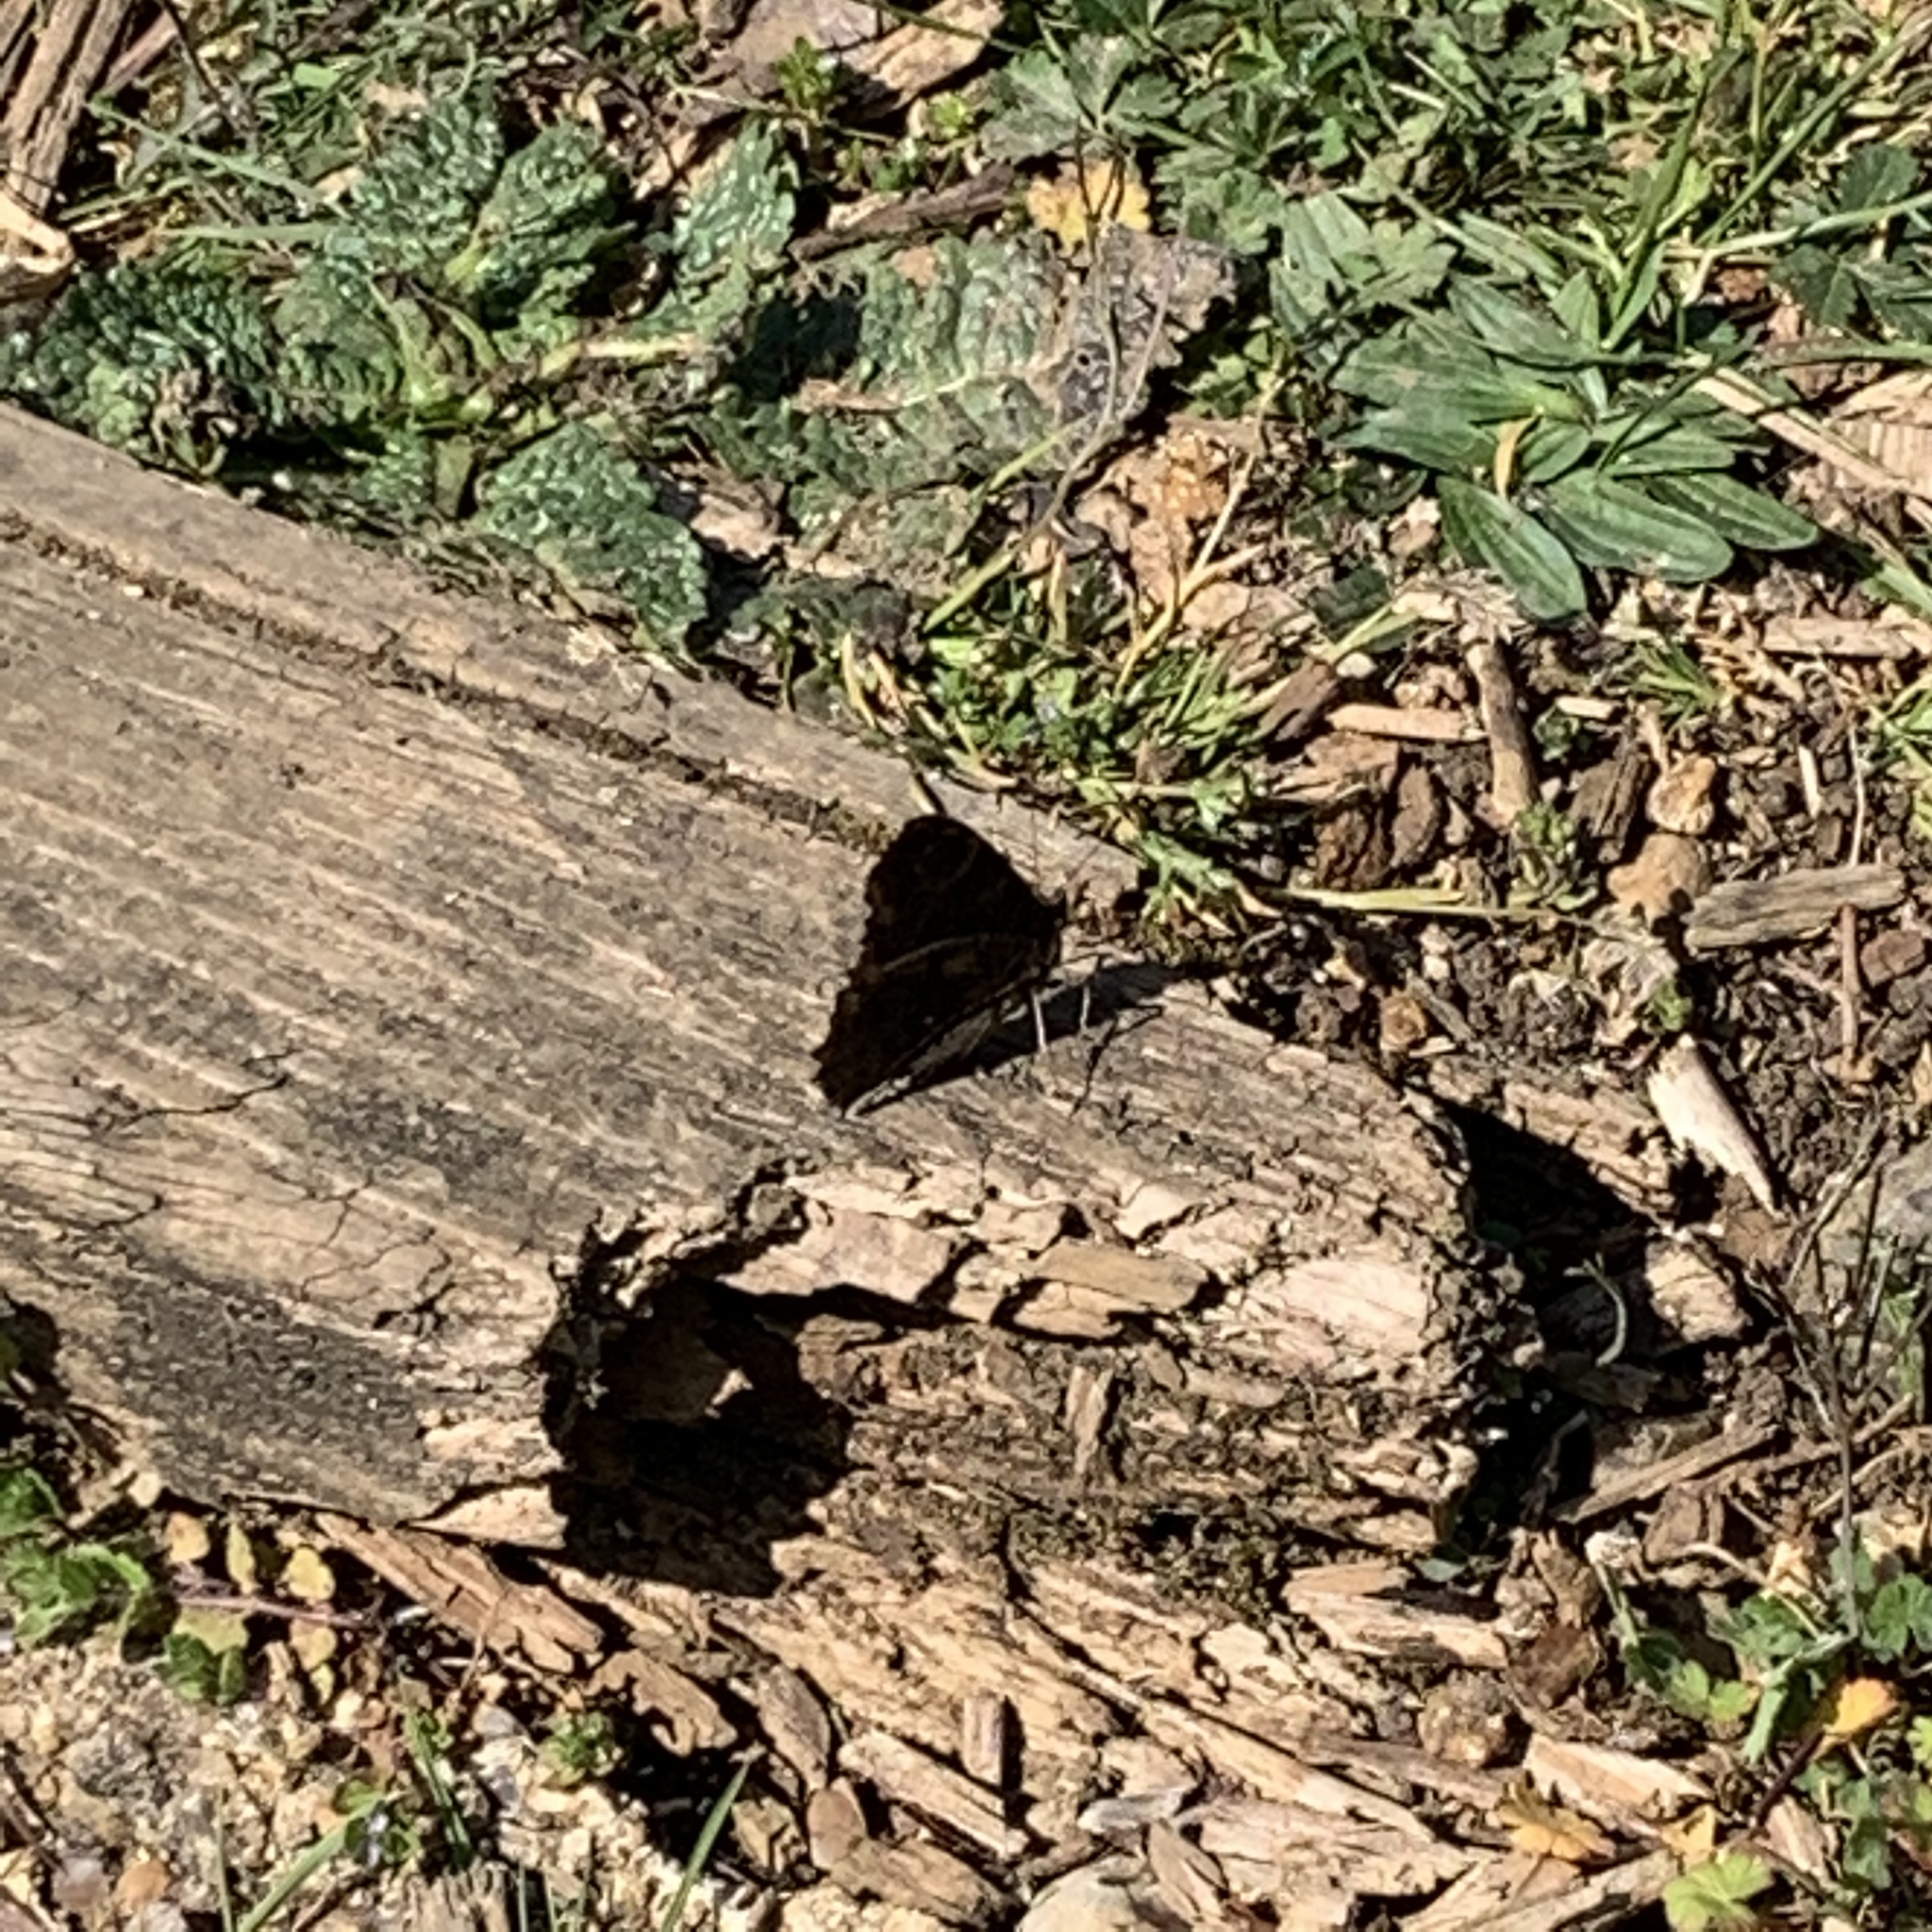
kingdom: Animalia
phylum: Arthropoda
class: Insecta
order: Lepidoptera
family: Nymphalidae
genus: Aglais
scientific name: Aglais io
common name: Peacock
